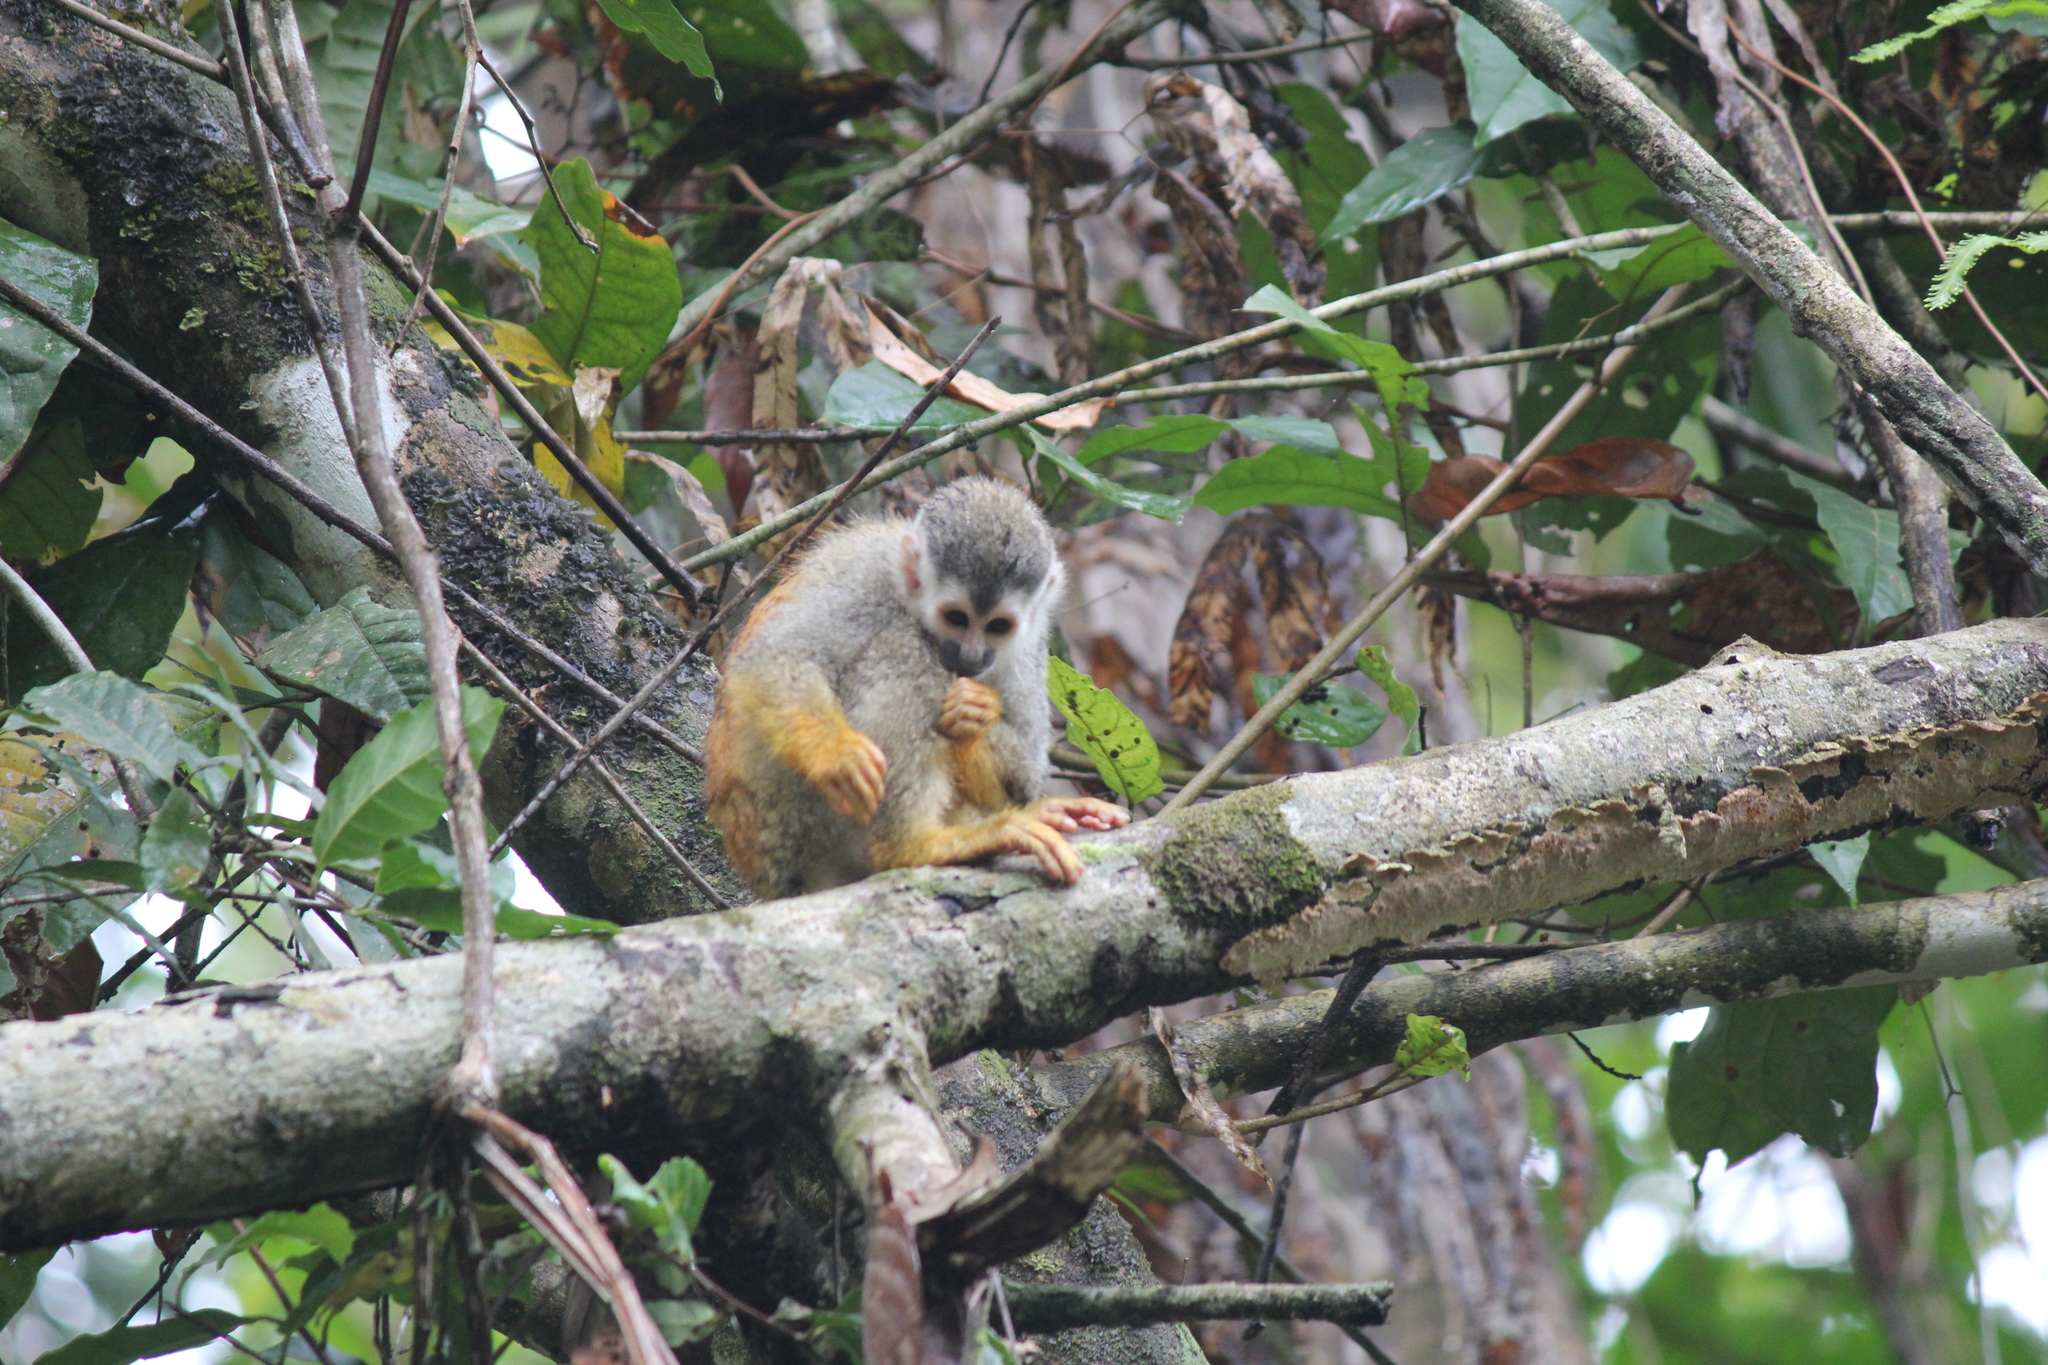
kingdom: Animalia
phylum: Chordata
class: Mammalia
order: Primates
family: Cebidae
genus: Saimiri
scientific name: Saimiri oerstedii
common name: Central american squirrel monkey
